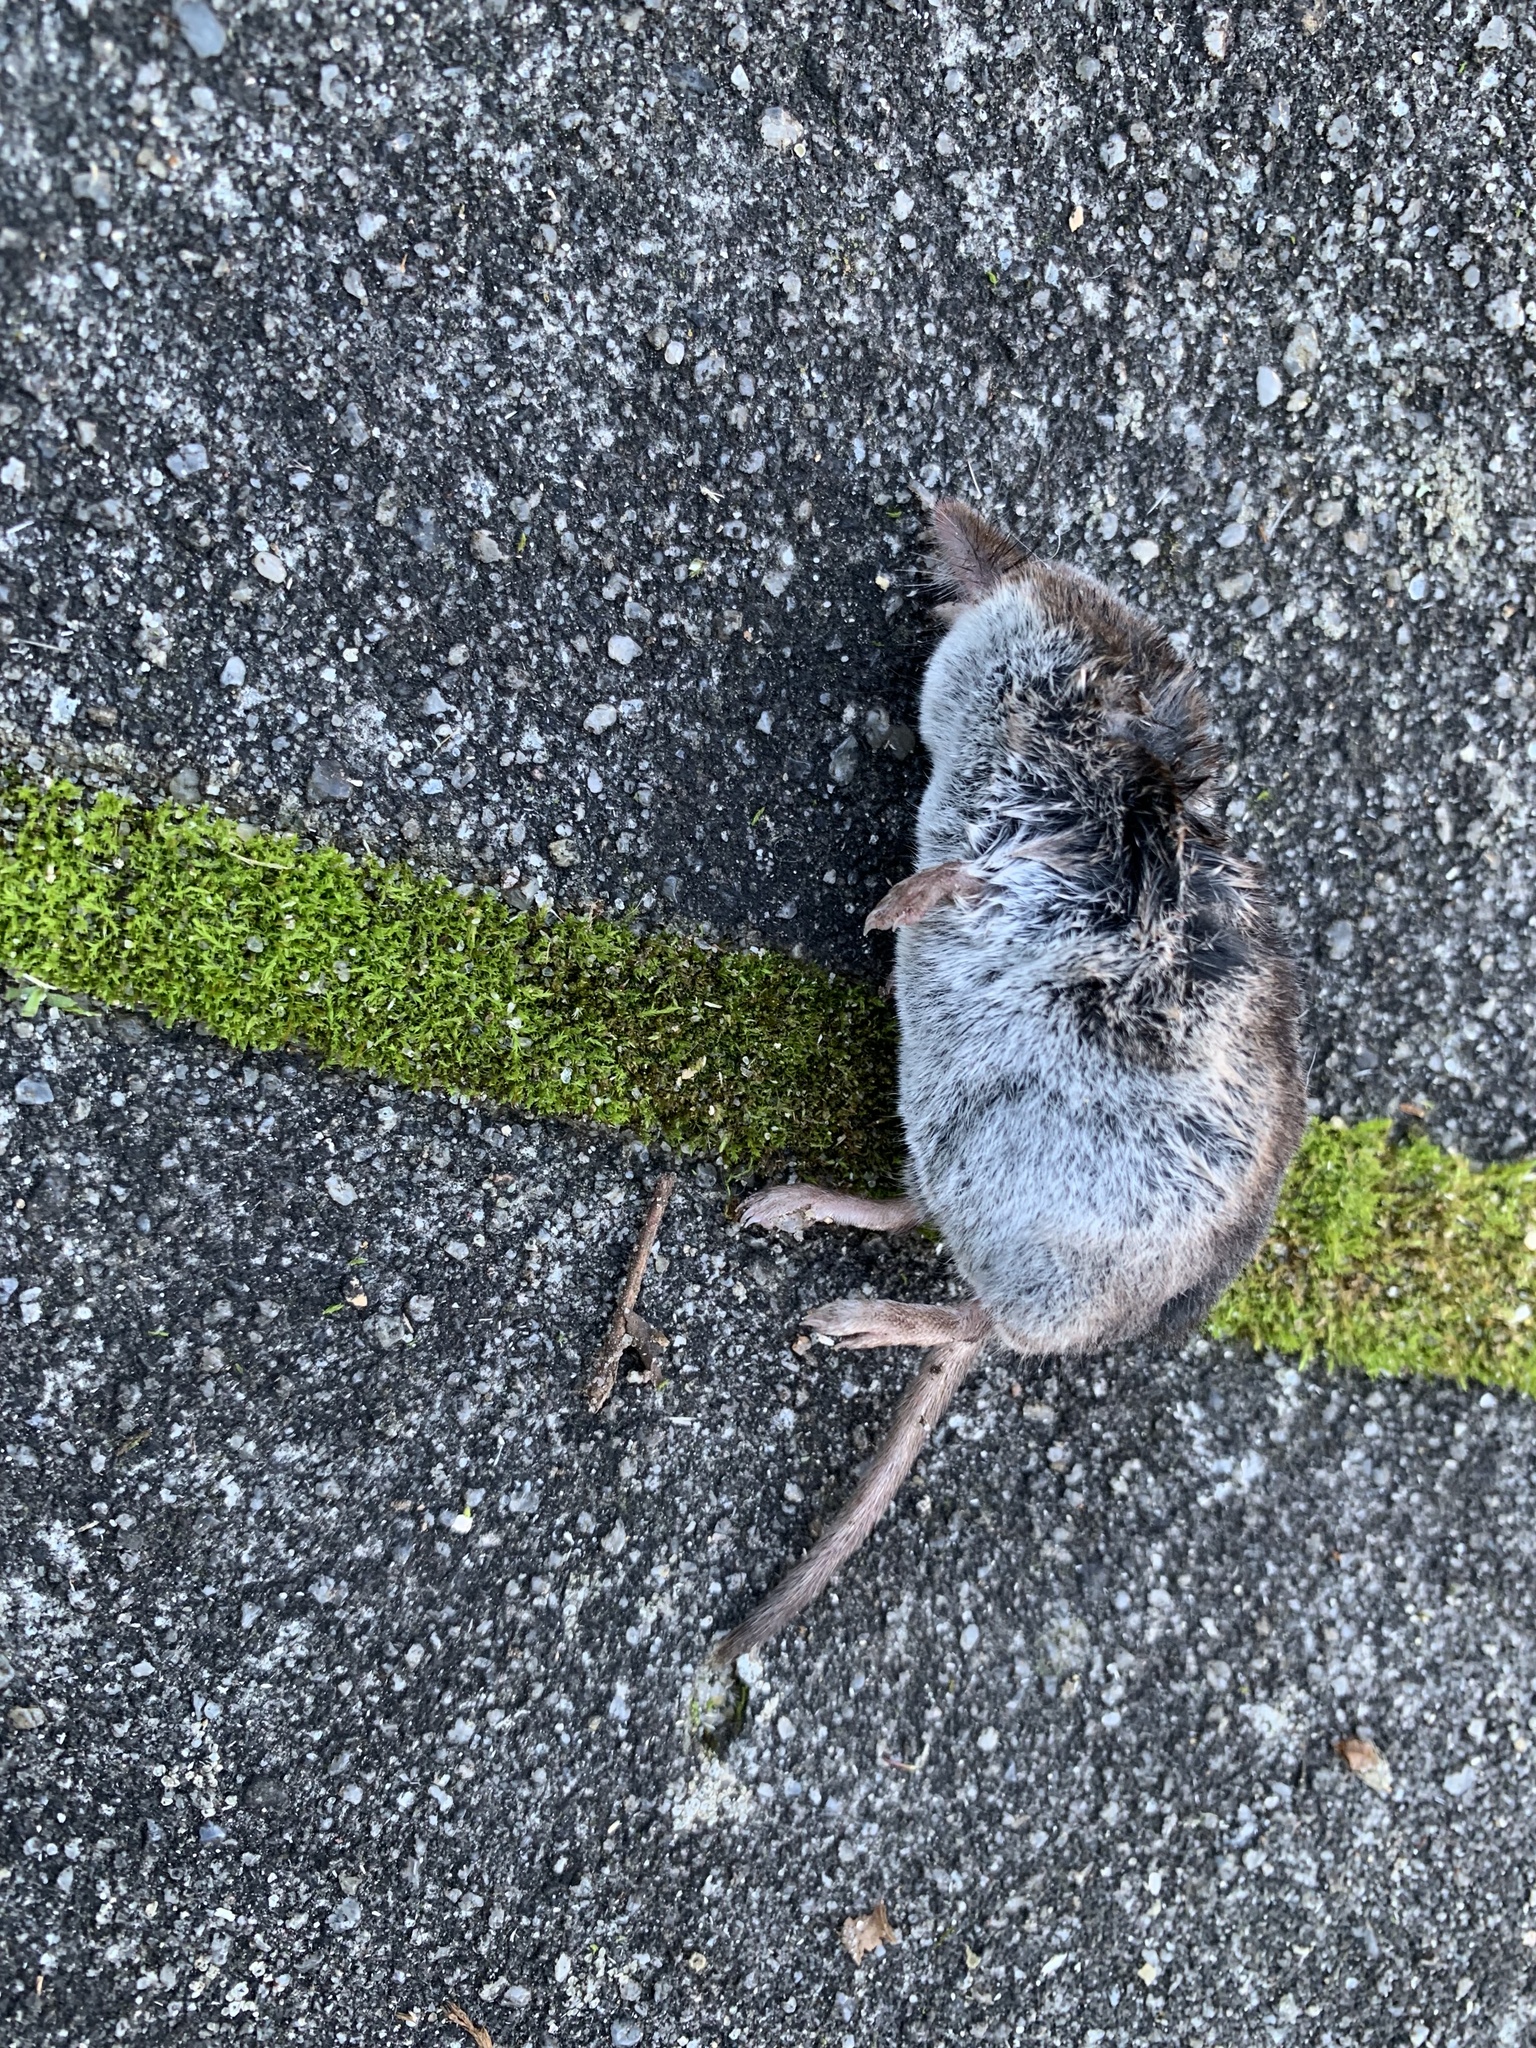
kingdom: Animalia
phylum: Chordata
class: Mammalia
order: Soricomorpha
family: Soricidae
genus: Sorex
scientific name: Sorex araneus
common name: Common shrew
